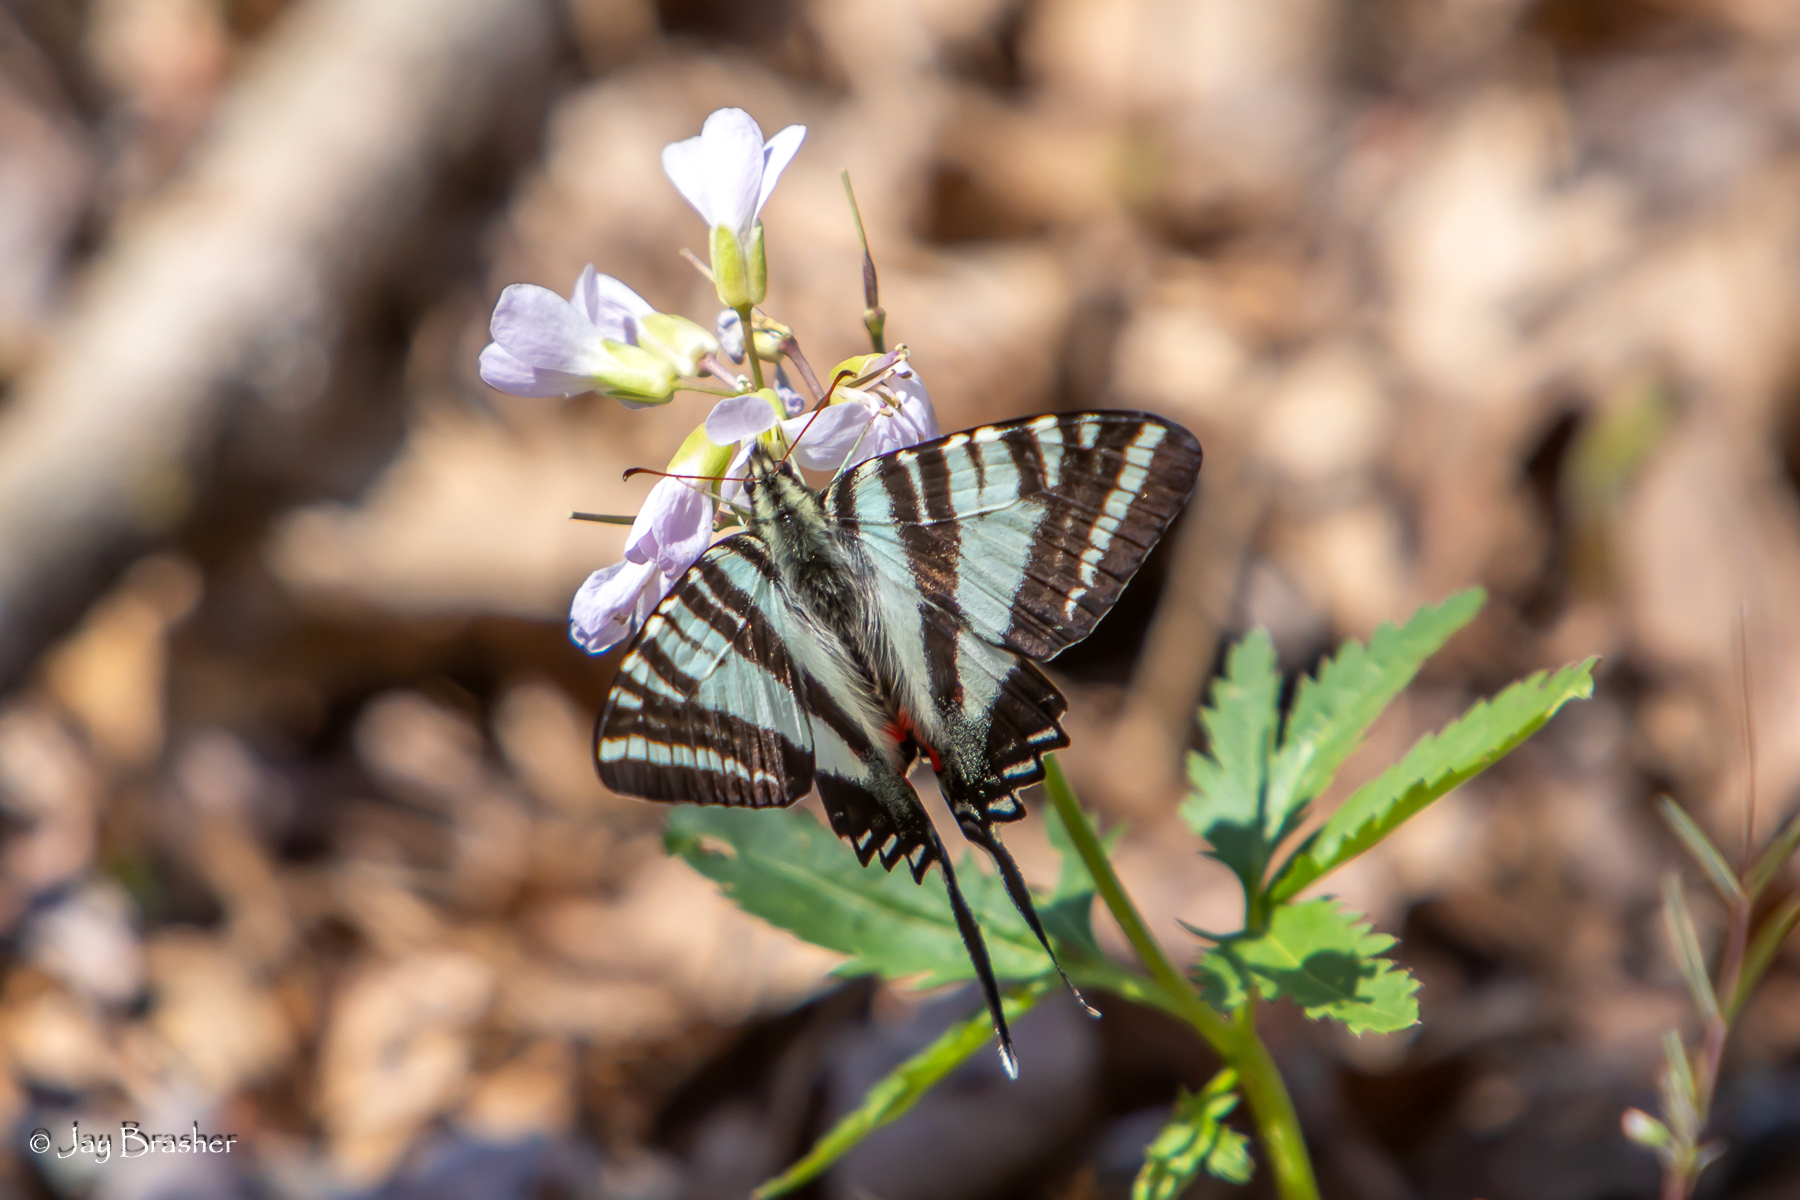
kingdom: Animalia
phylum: Arthropoda
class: Insecta
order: Lepidoptera
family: Papilionidae
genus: Protographium
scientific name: Protographium marcellus
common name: Zebra swallowtail
